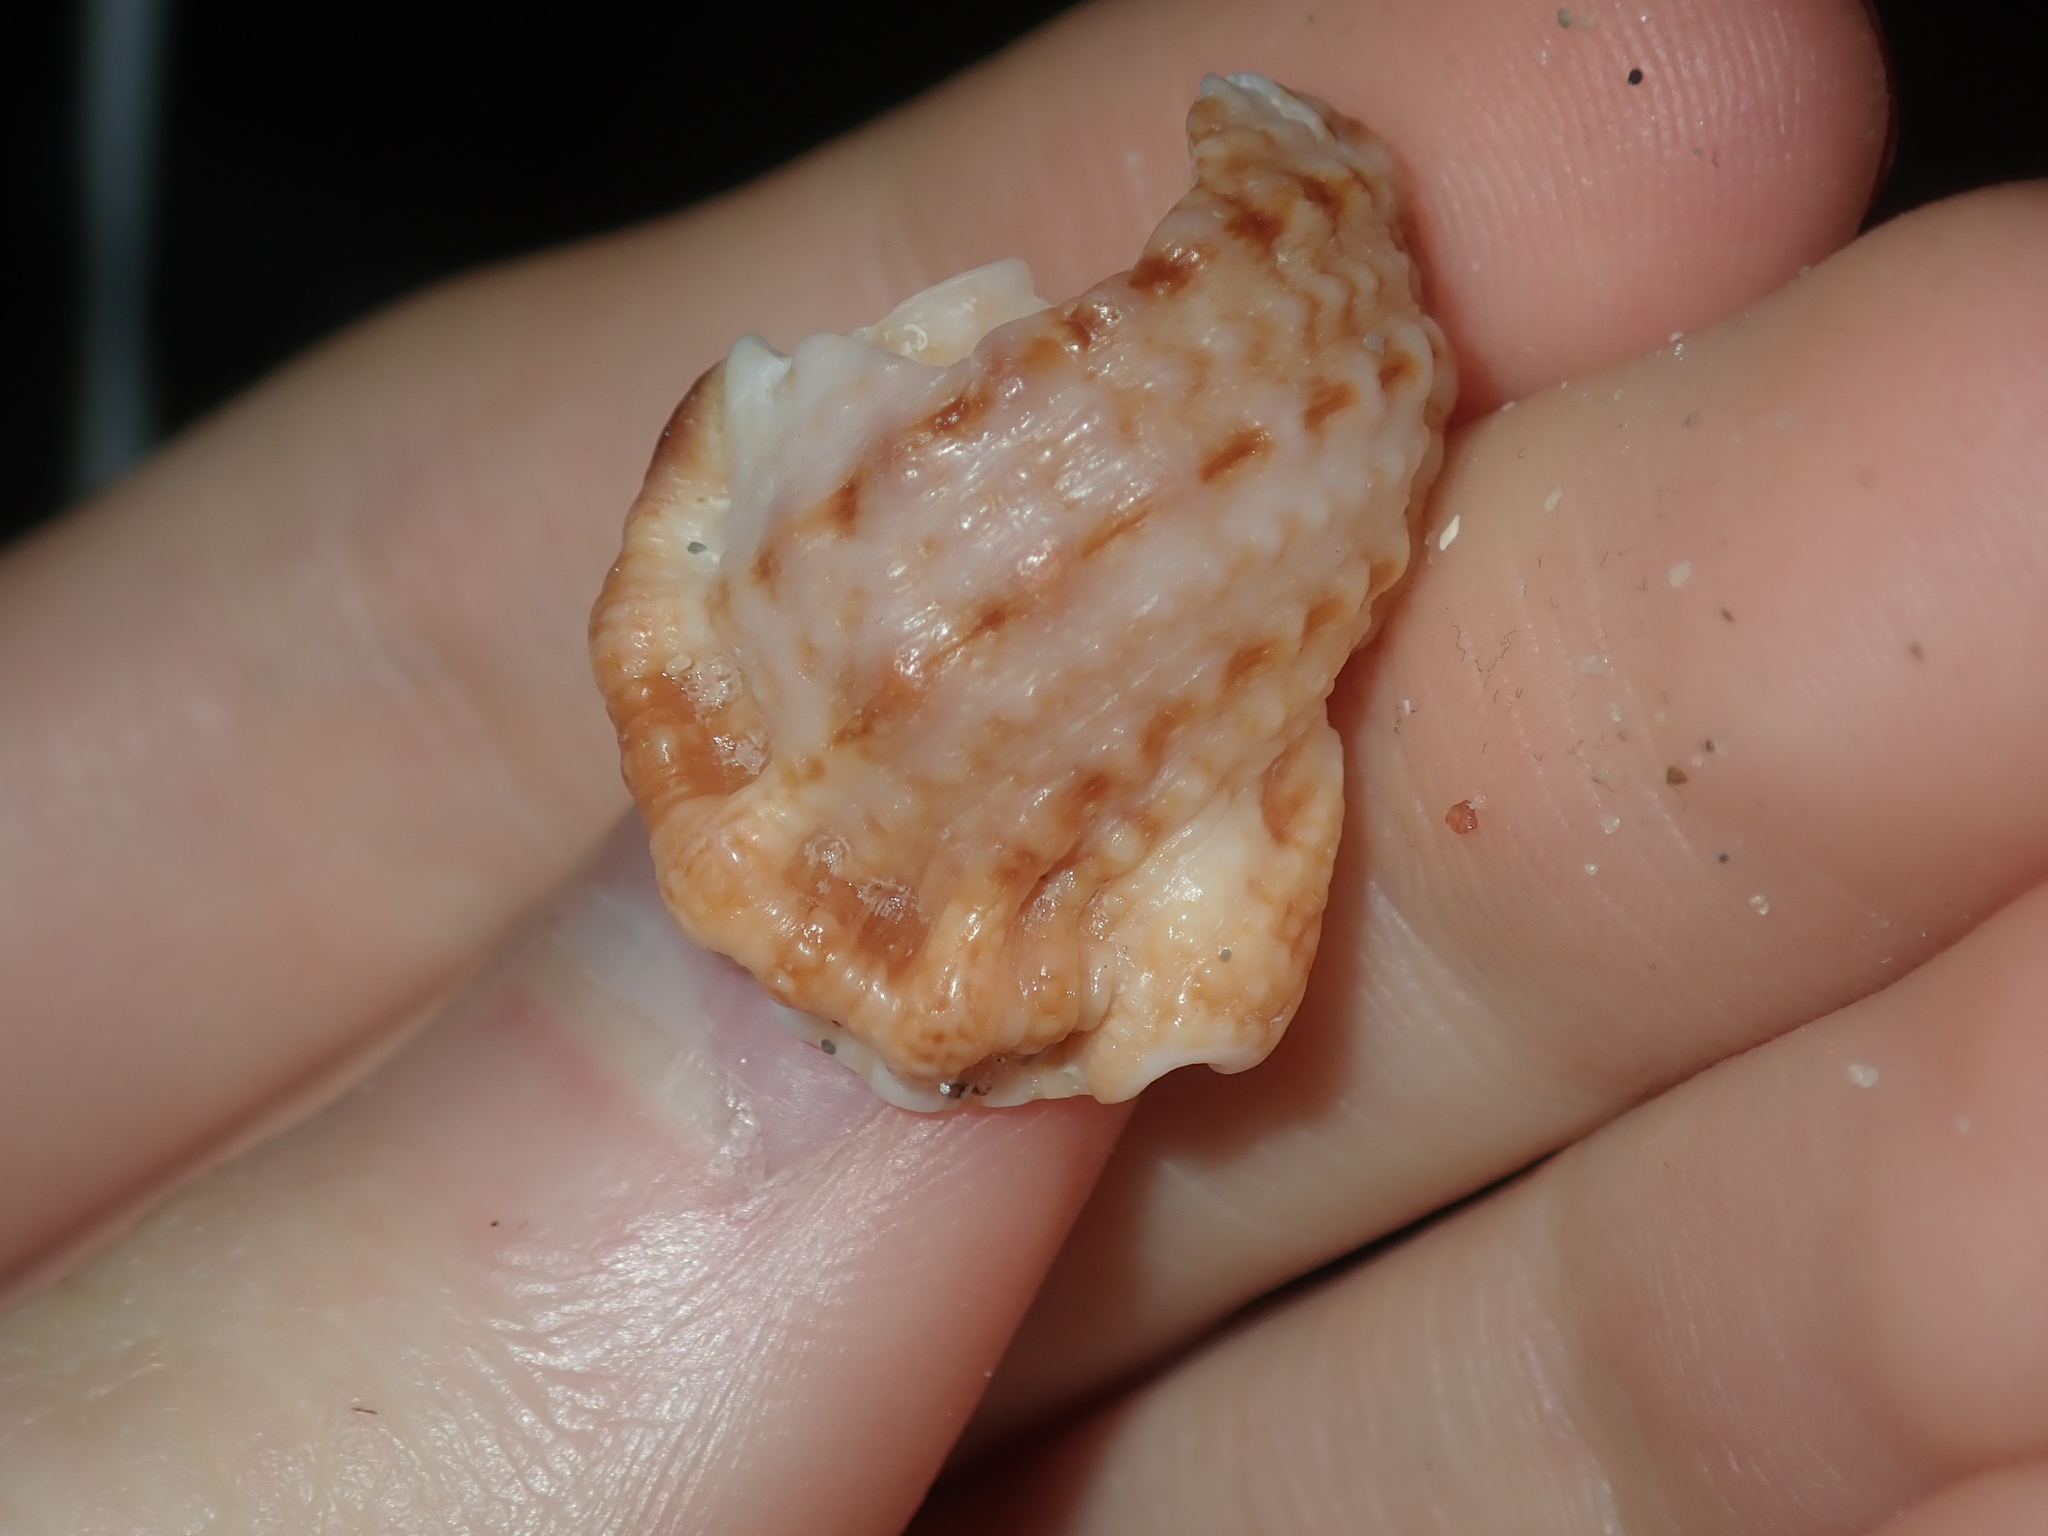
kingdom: Animalia
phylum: Mollusca
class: Gastropoda
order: Littorinimorpha
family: Bursidae
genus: Dulcerana
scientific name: Dulcerana granularis
